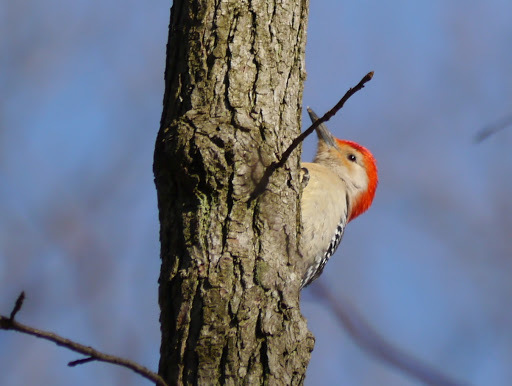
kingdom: Animalia
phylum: Chordata
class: Aves
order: Piciformes
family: Picidae
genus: Melanerpes
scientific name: Melanerpes carolinus
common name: Red-bellied woodpecker
